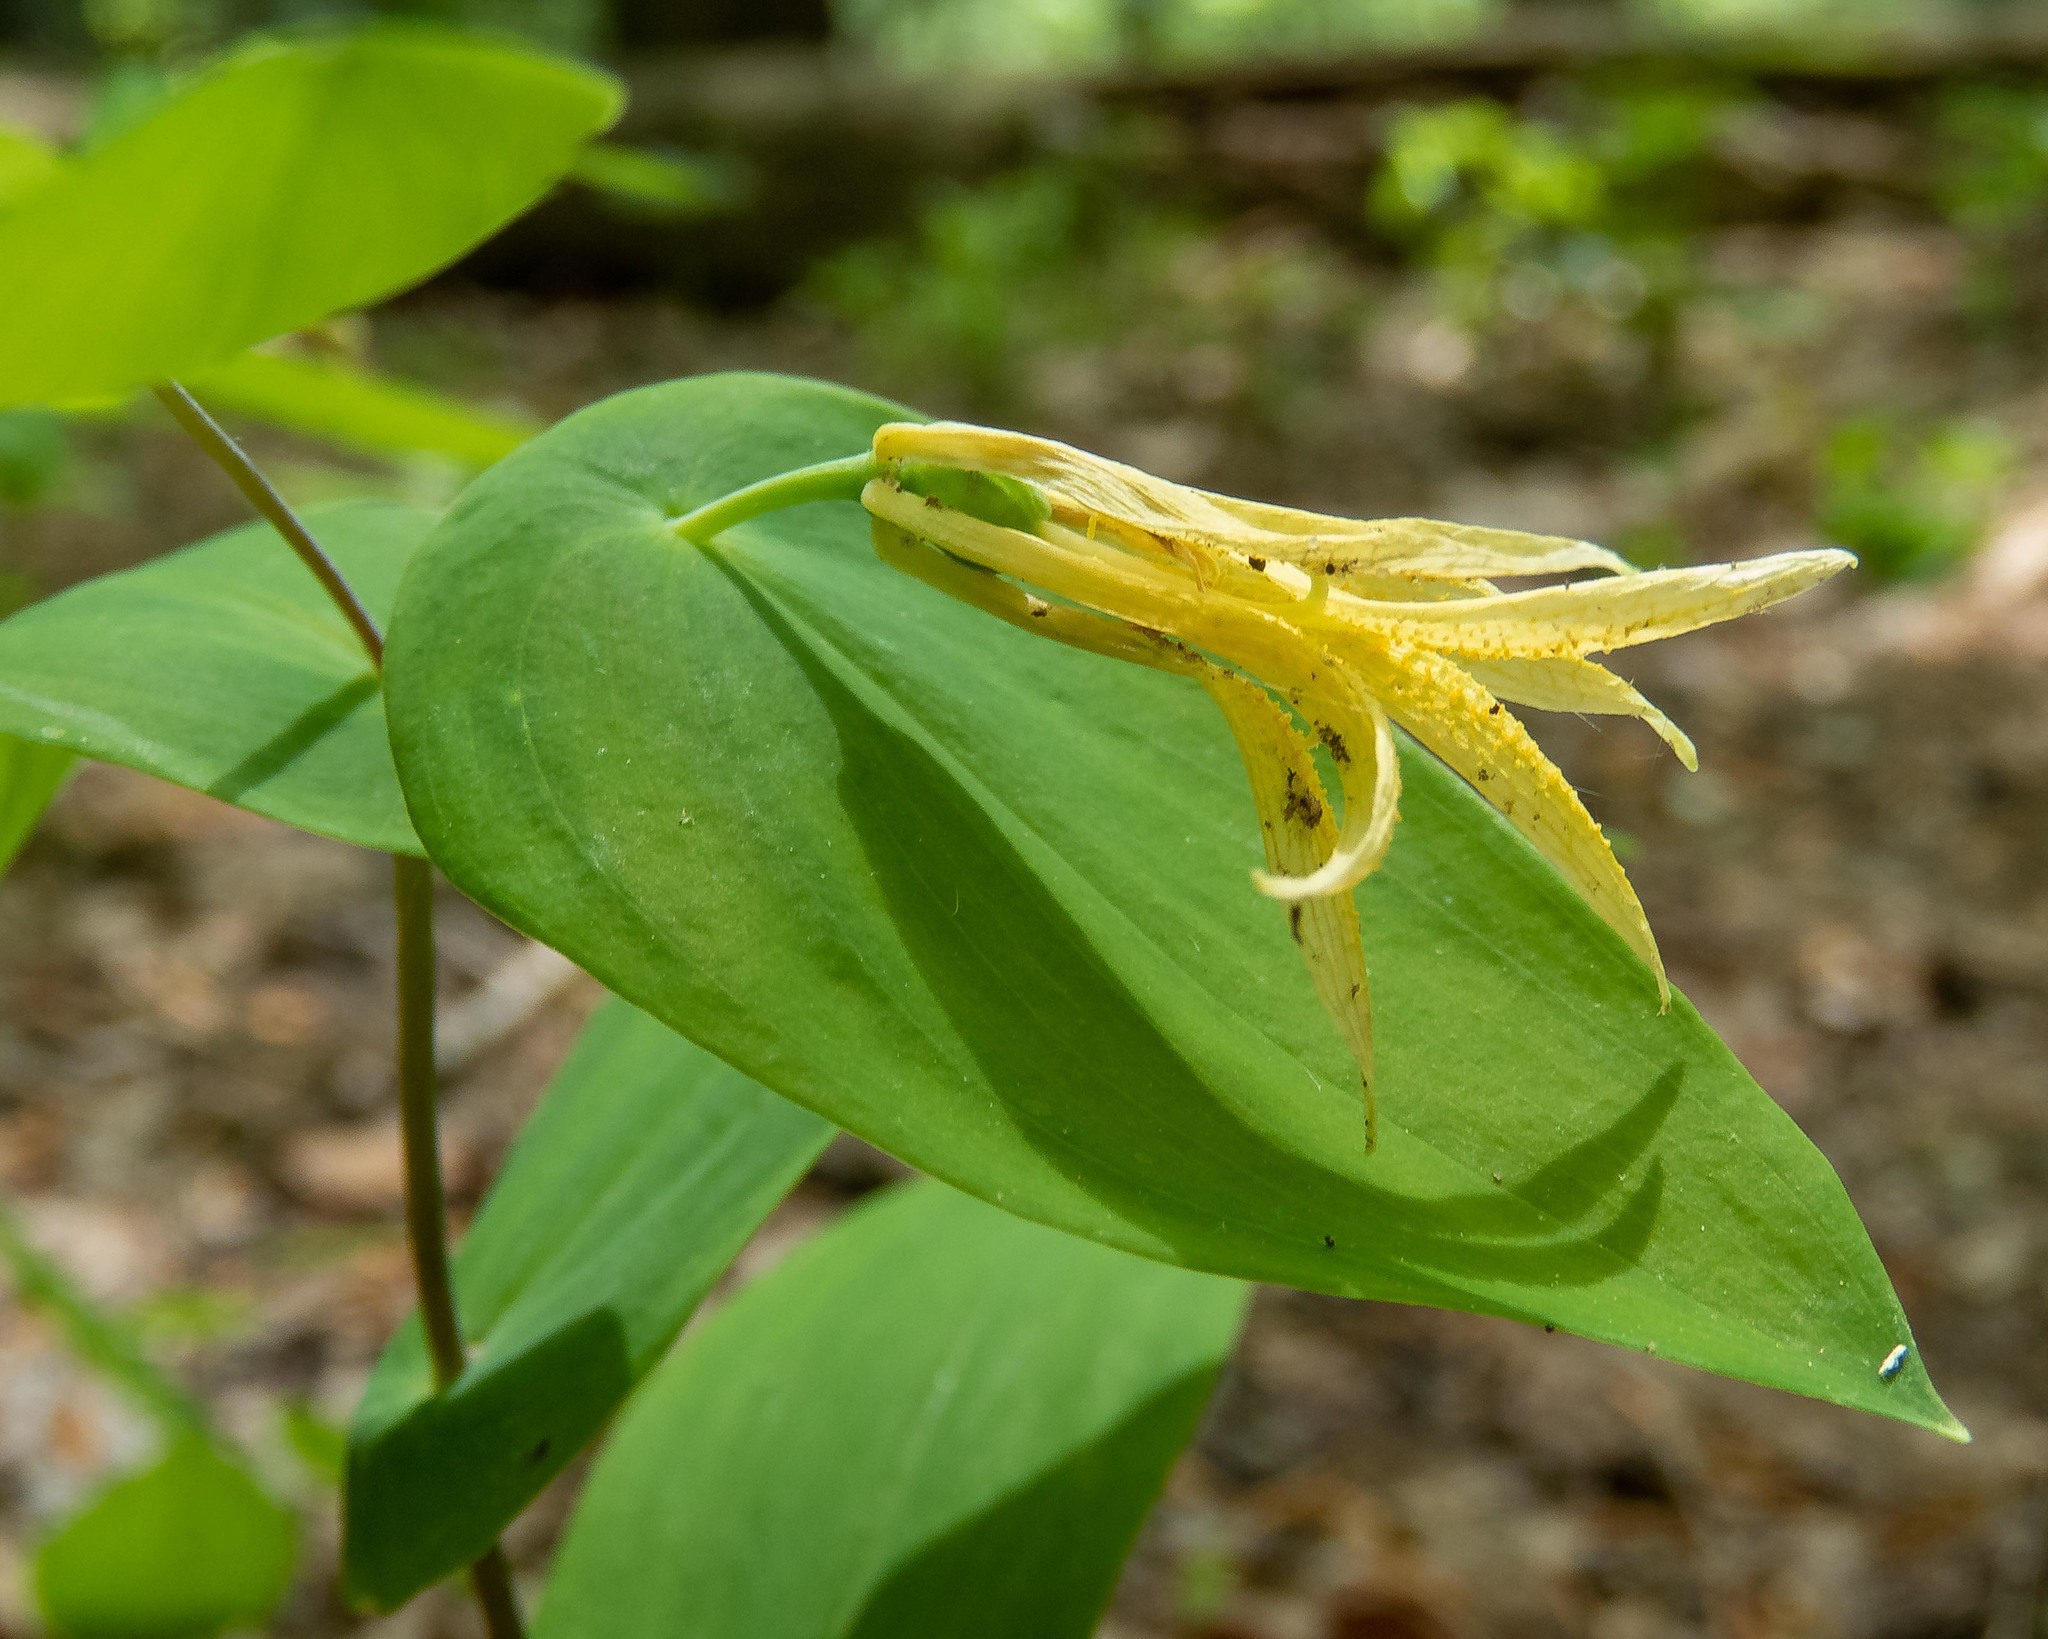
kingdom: Plantae
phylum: Tracheophyta
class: Liliopsida
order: Liliales
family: Colchicaceae
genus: Uvularia
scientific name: Uvularia perfoliata
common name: Perfoliate bellwort
